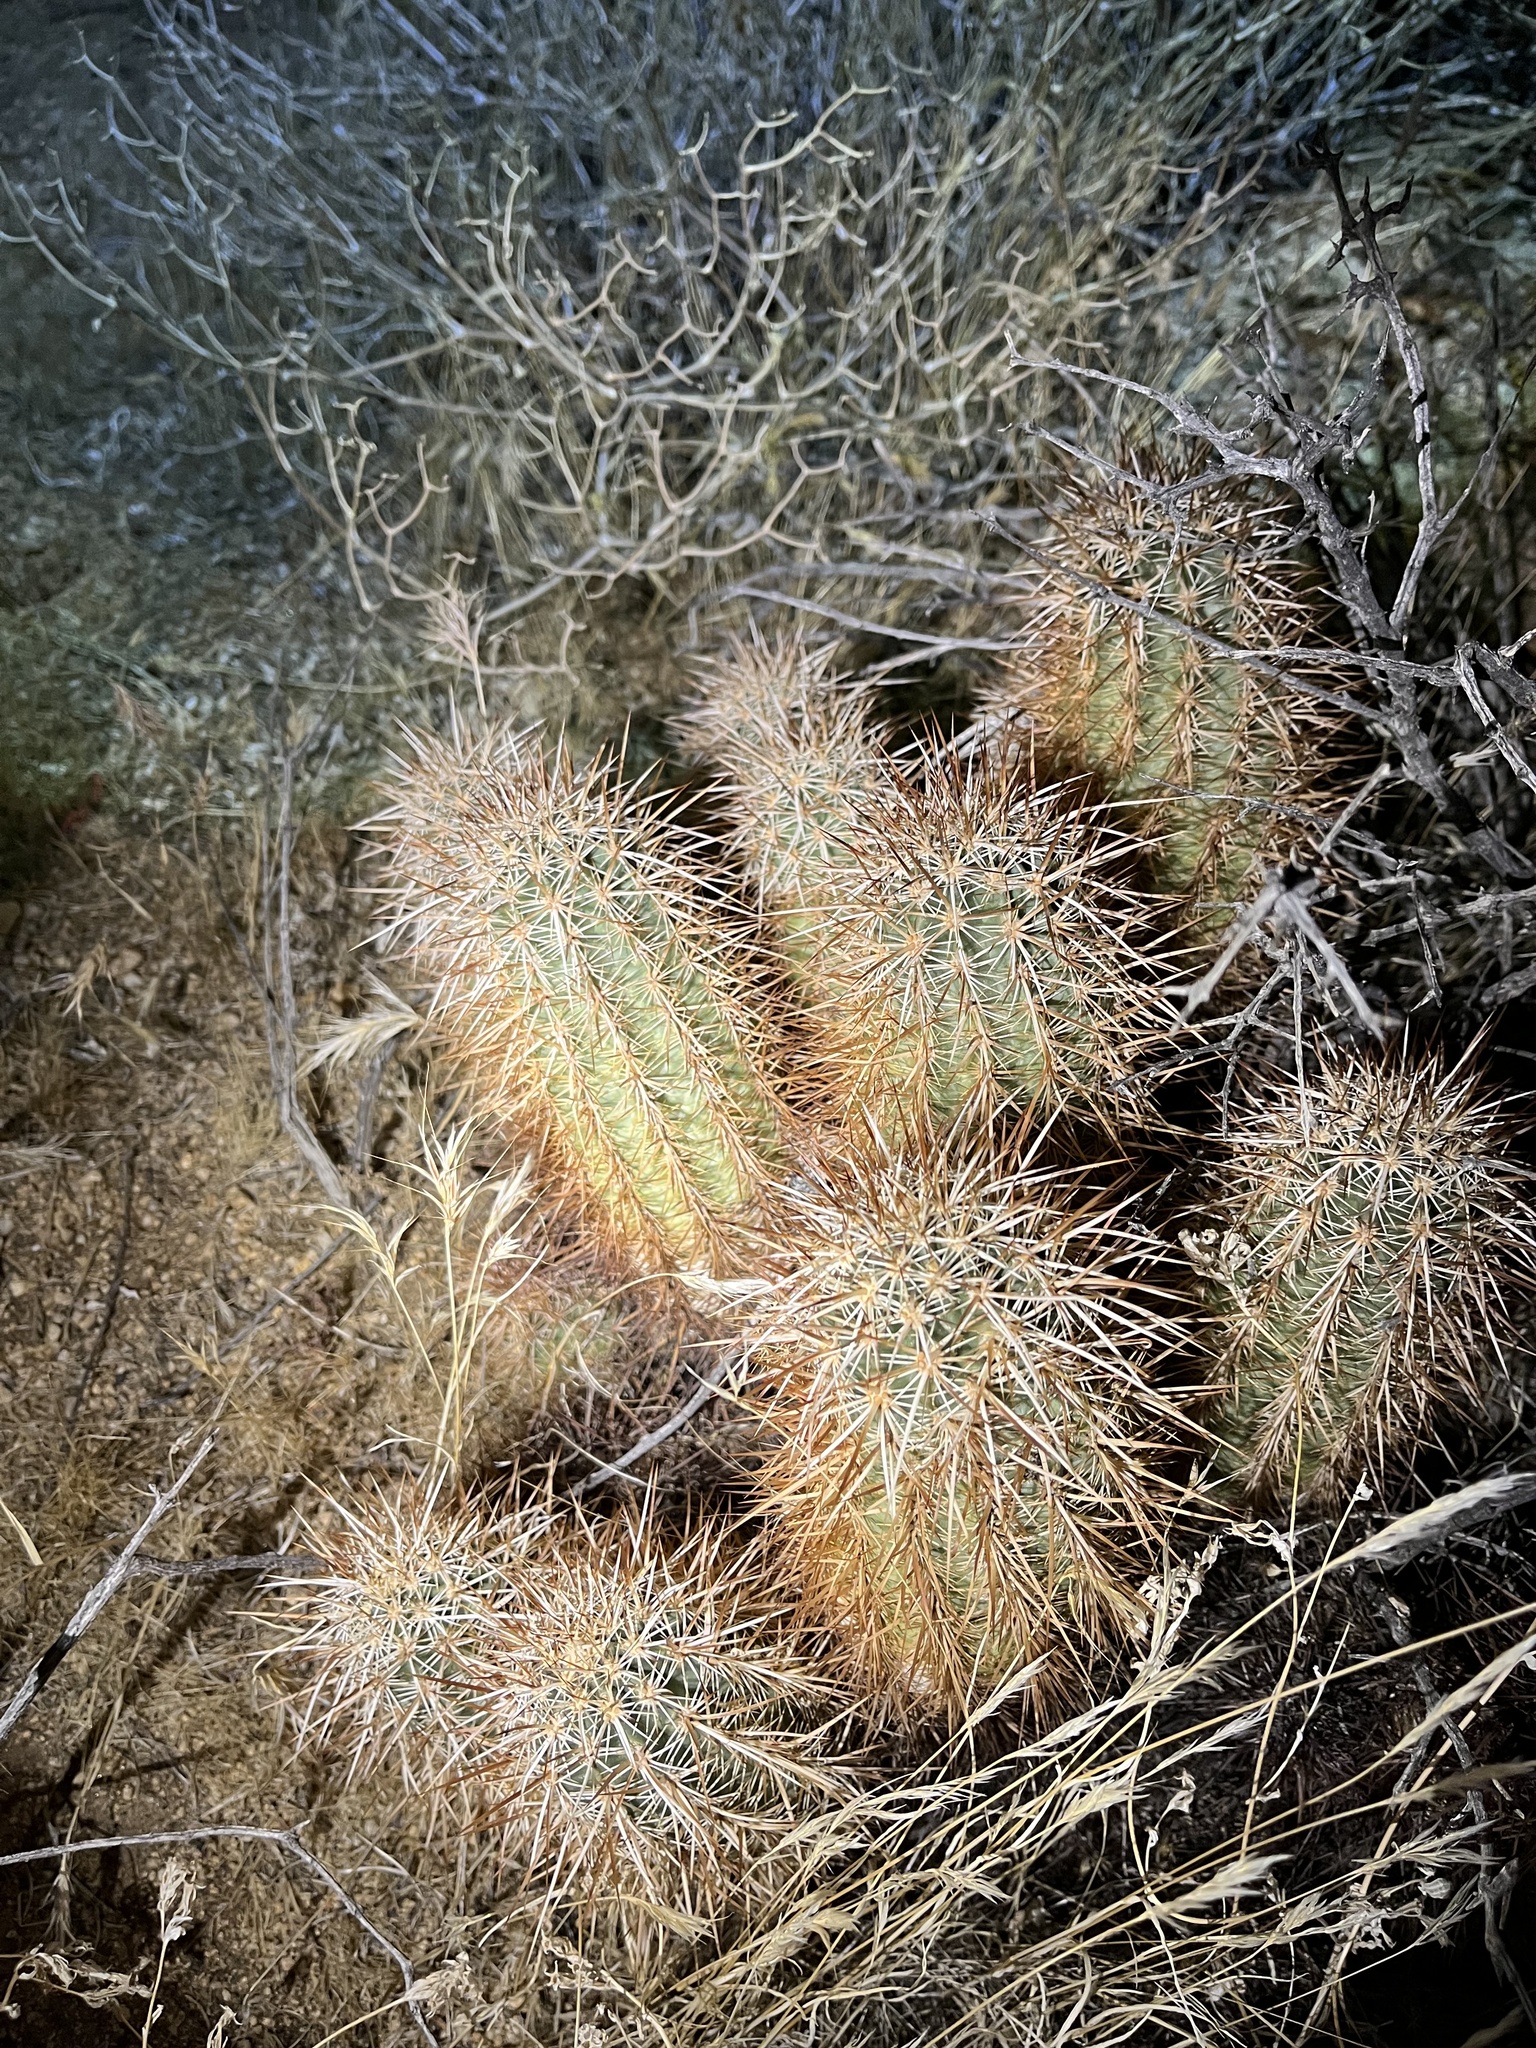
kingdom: Plantae
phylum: Tracheophyta
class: Magnoliopsida
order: Caryophyllales
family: Cactaceae
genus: Echinocereus
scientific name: Echinocereus engelmannii
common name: Engelmann's hedgehog cactus
